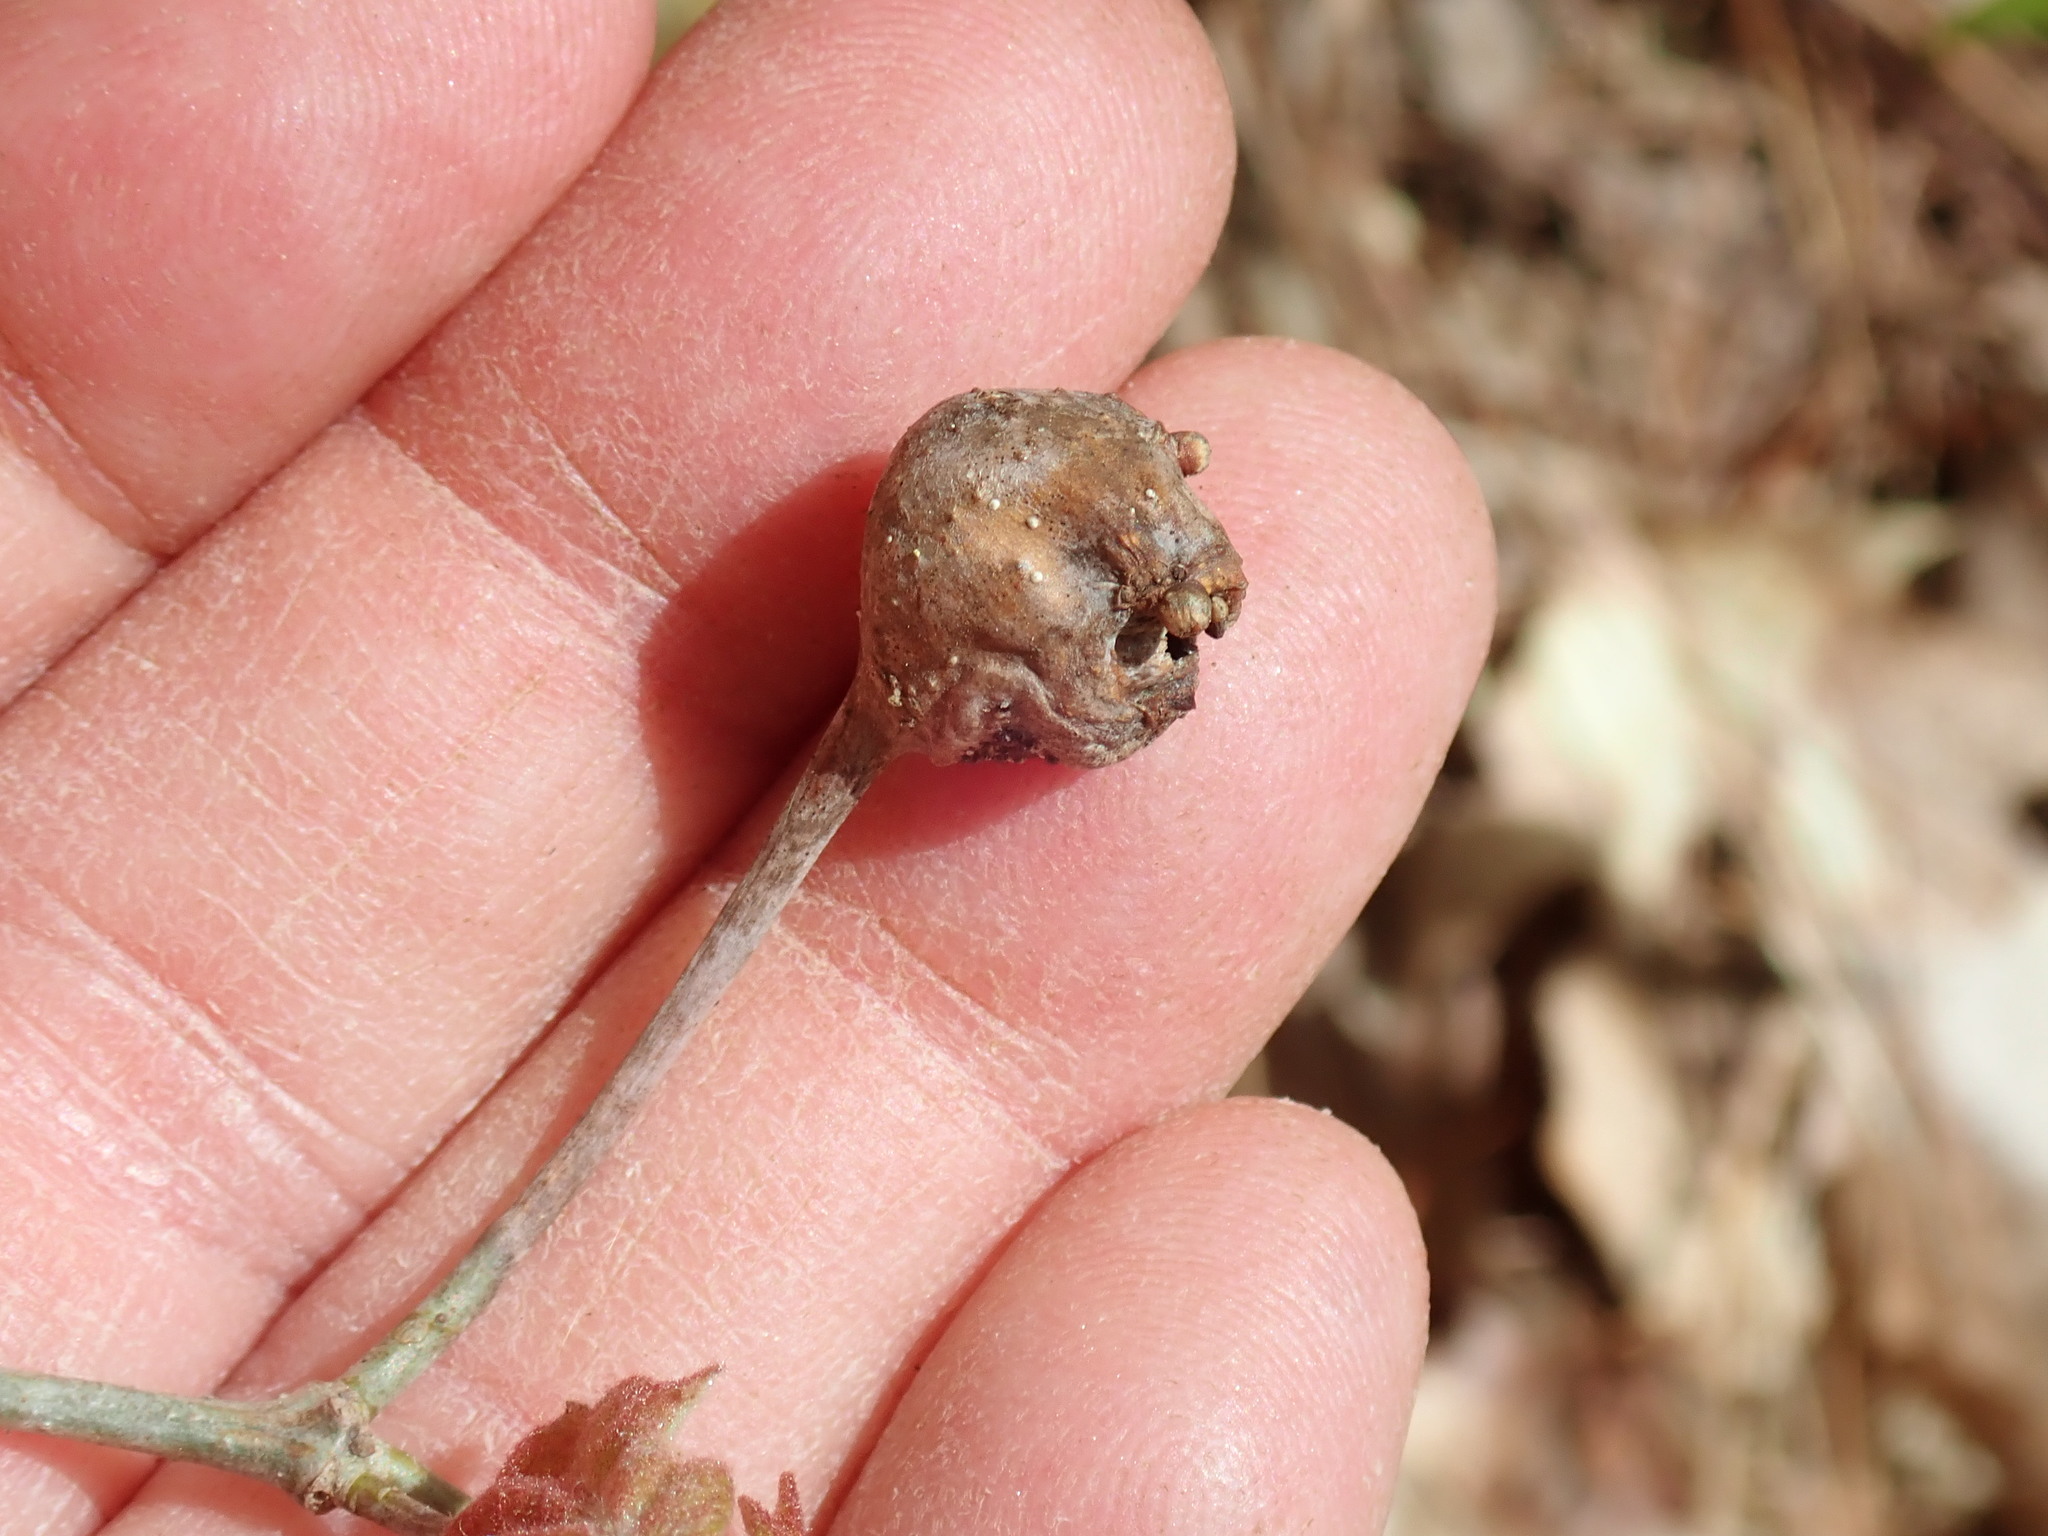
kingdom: Animalia
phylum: Arthropoda
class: Insecta
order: Hymenoptera
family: Cynipidae
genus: Callirhytis
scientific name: Callirhytis clavula
